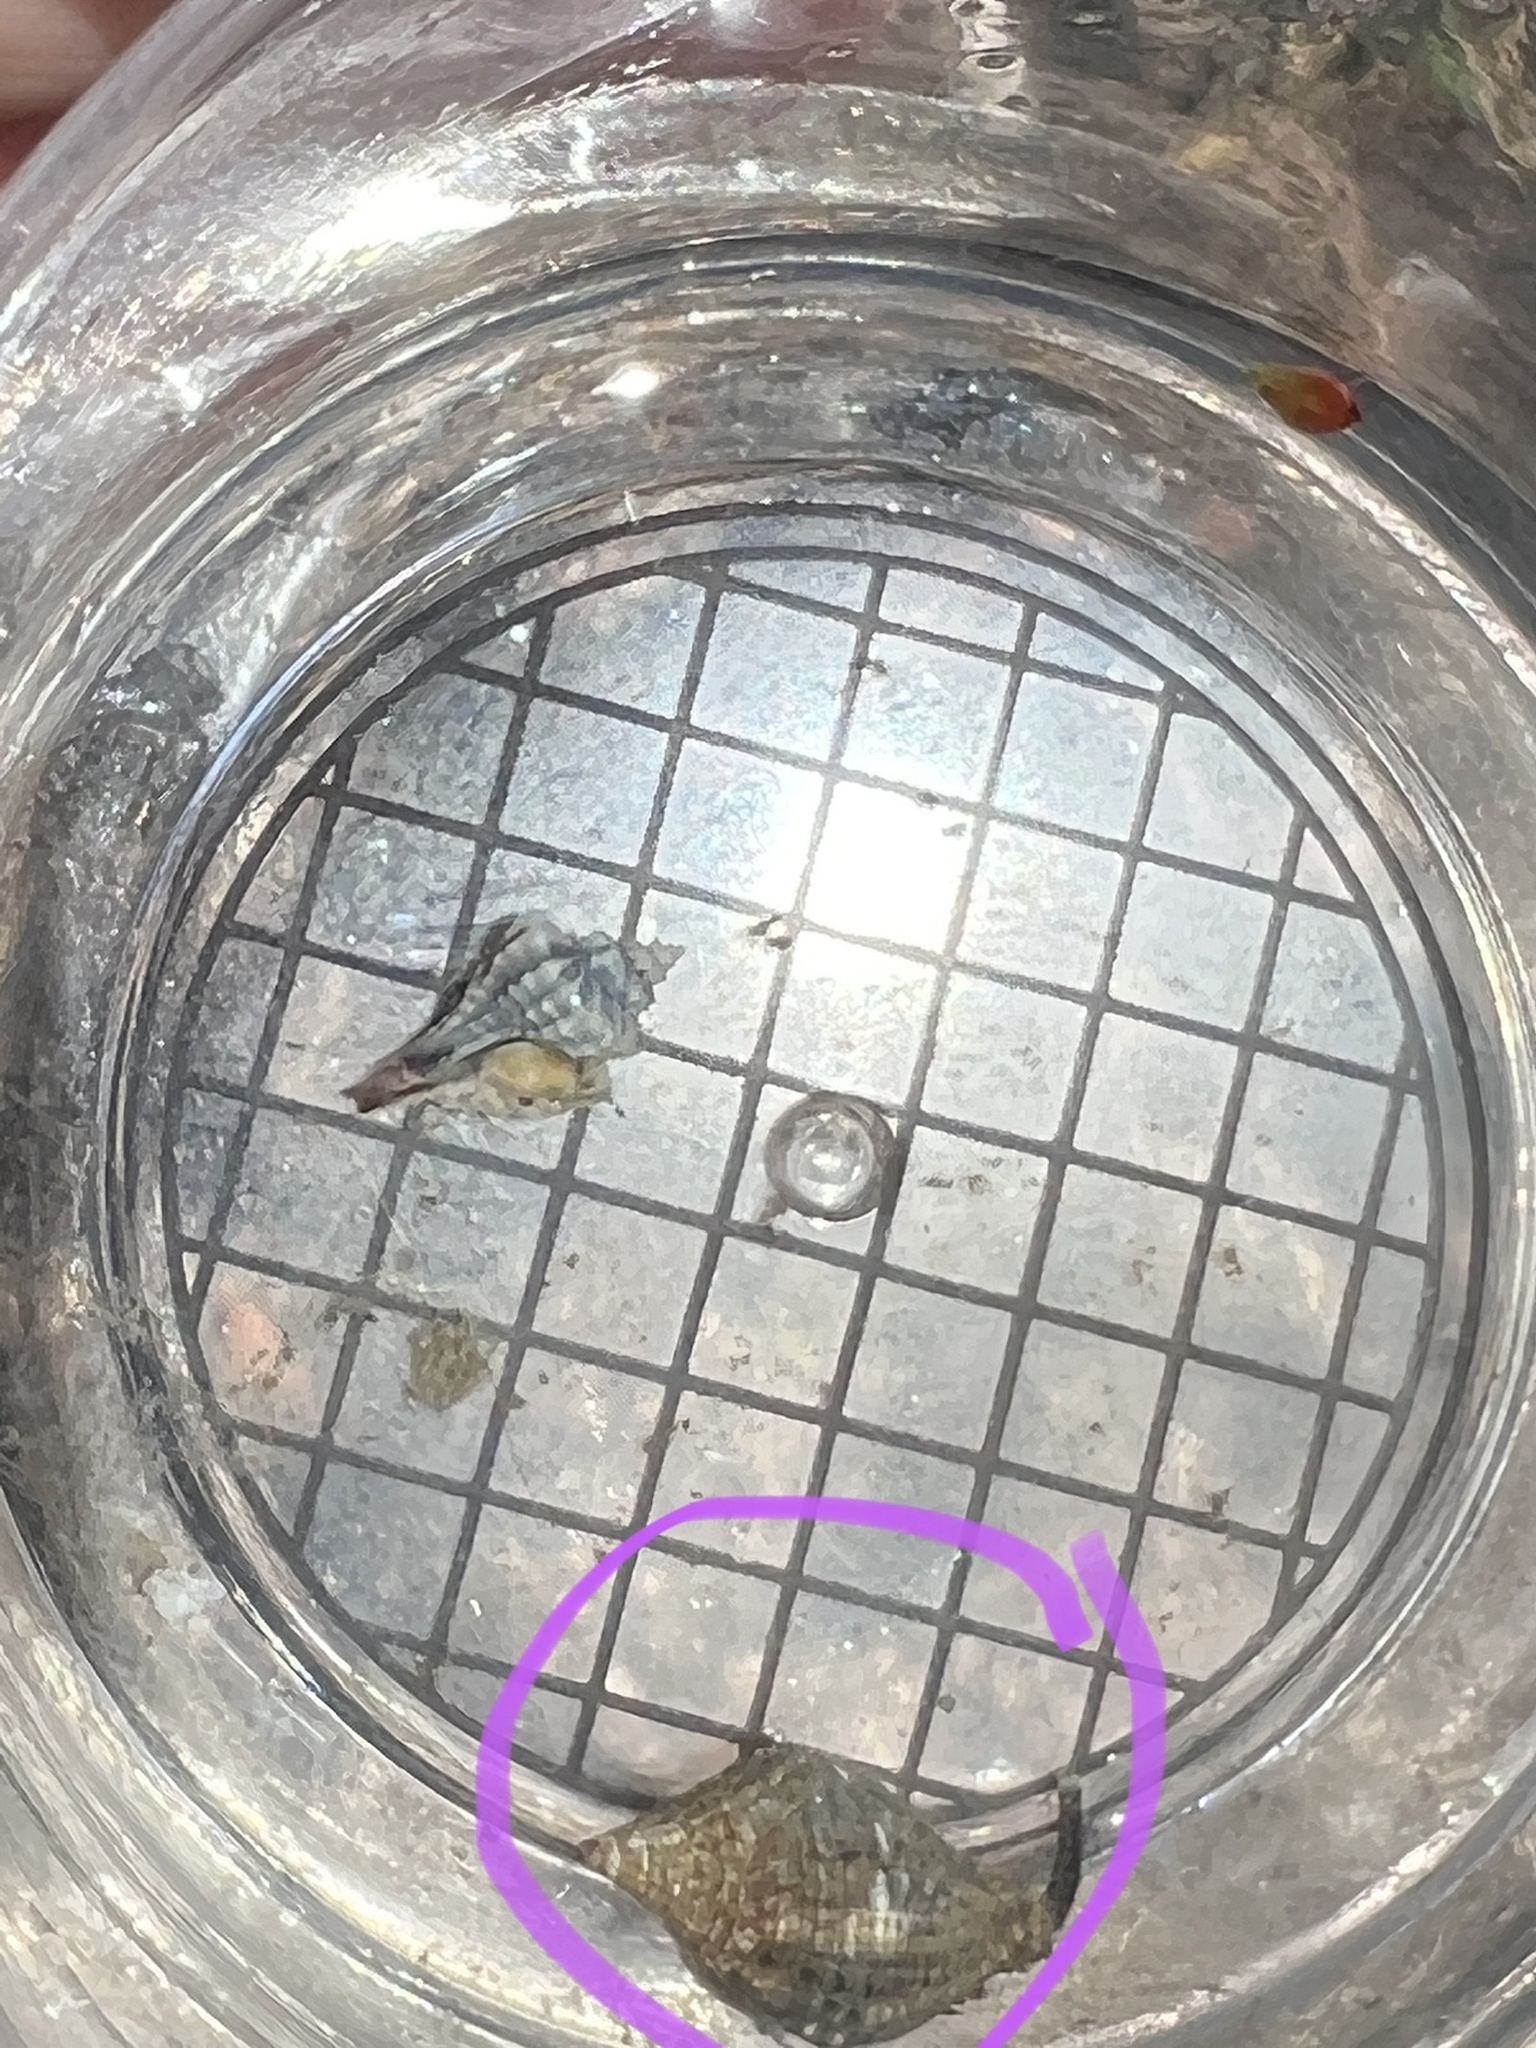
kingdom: Animalia
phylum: Mollusca
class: Gastropoda
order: Neogastropoda
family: Pisaniidae
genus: Gemophos
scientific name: Gemophos tinctus
